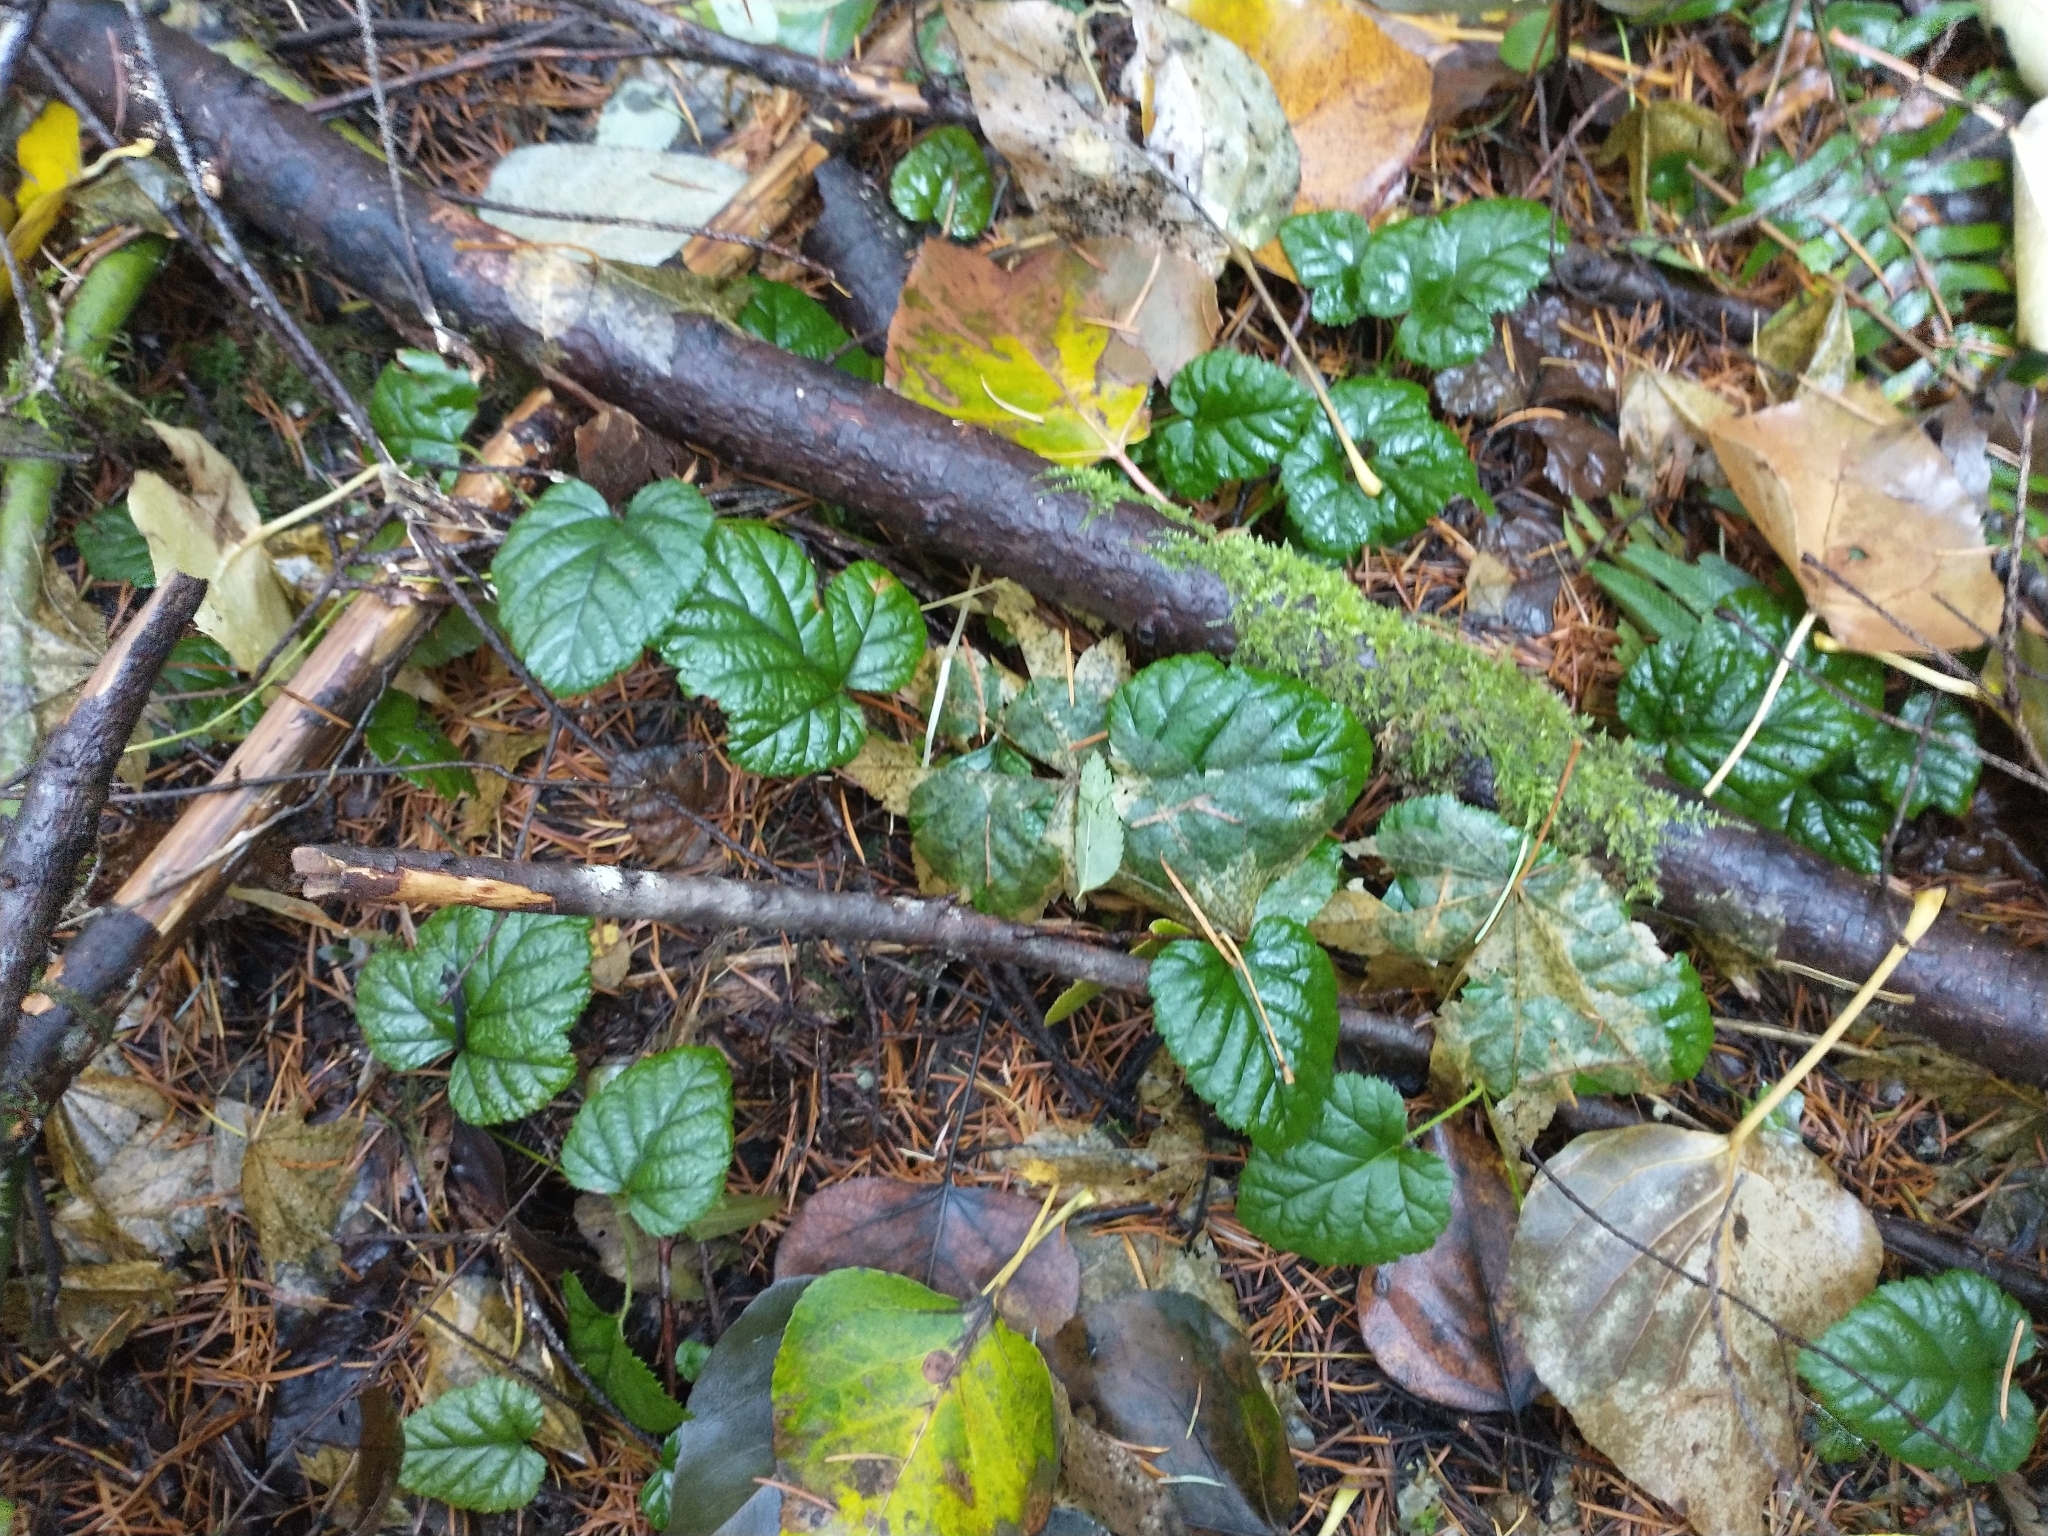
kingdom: Plantae
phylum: Tracheophyta
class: Magnoliopsida
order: Rosales
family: Rosaceae
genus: Rubus
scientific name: Rubus nivalis
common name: Dwarf snow bramble
